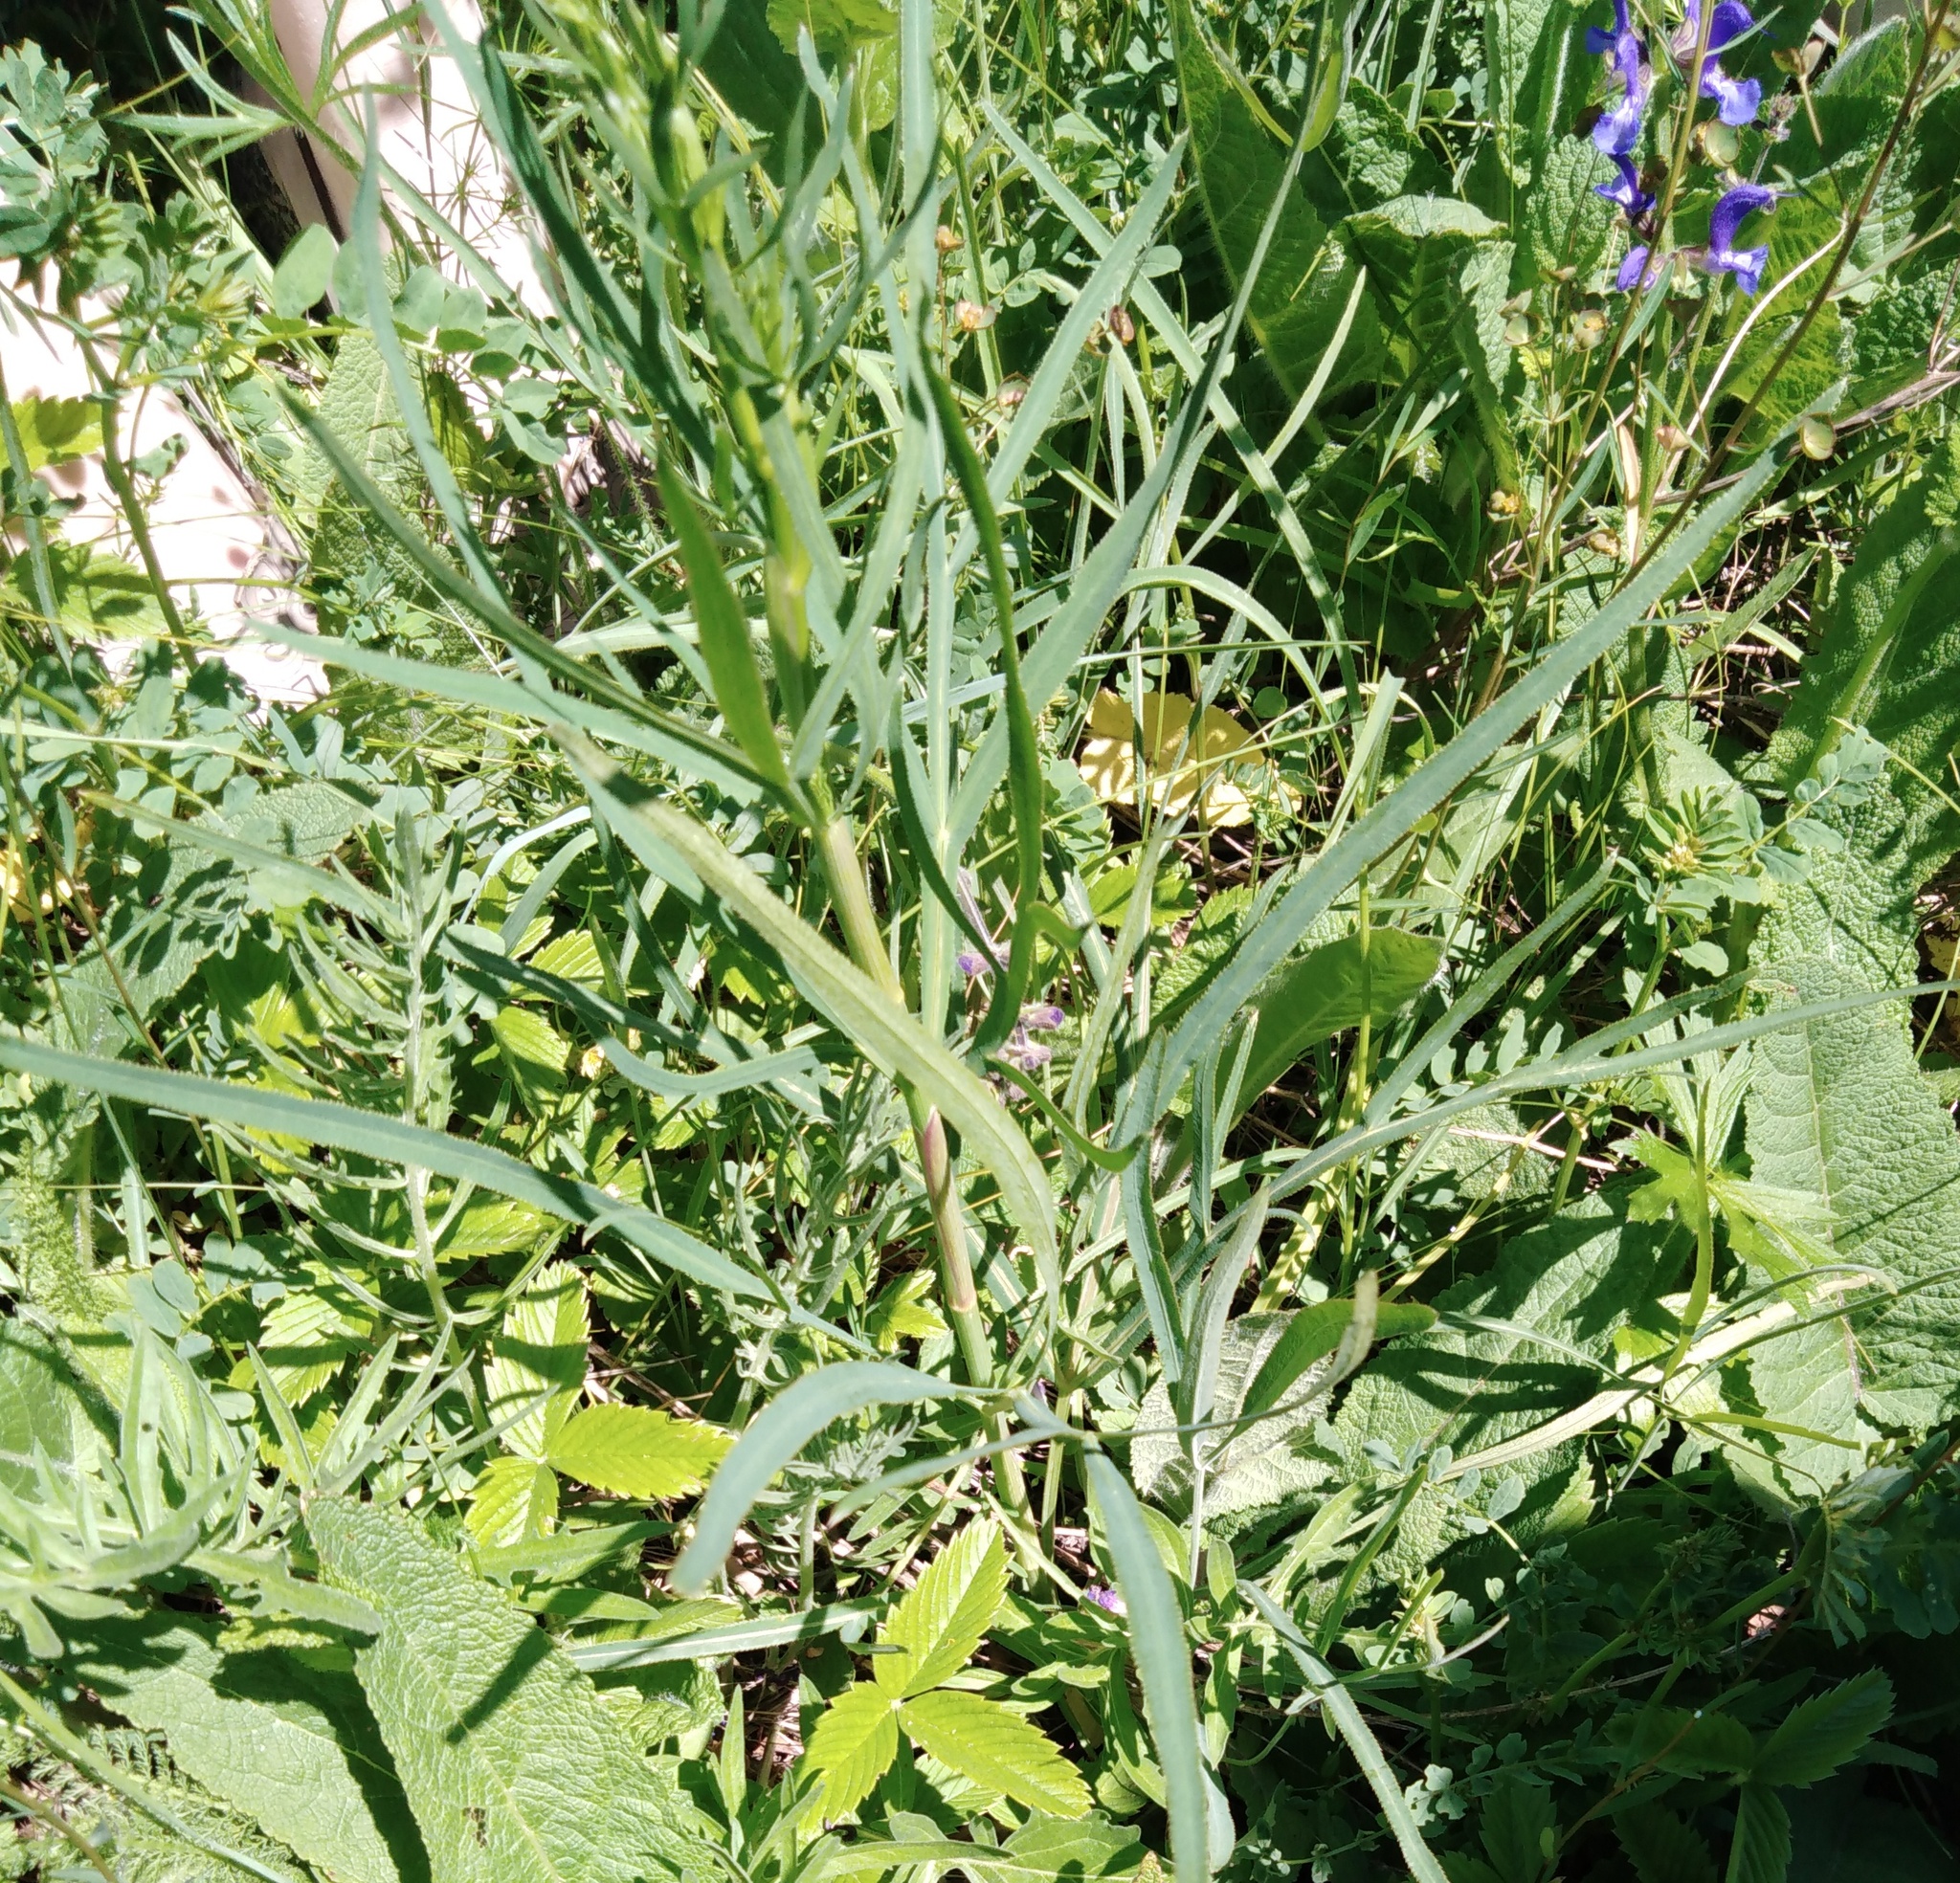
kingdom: Plantae
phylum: Tracheophyta
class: Magnoliopsida
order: Apiales
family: Apiaceae
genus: Falcaria
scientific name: Falcaria vulgaris
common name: Longleaf
